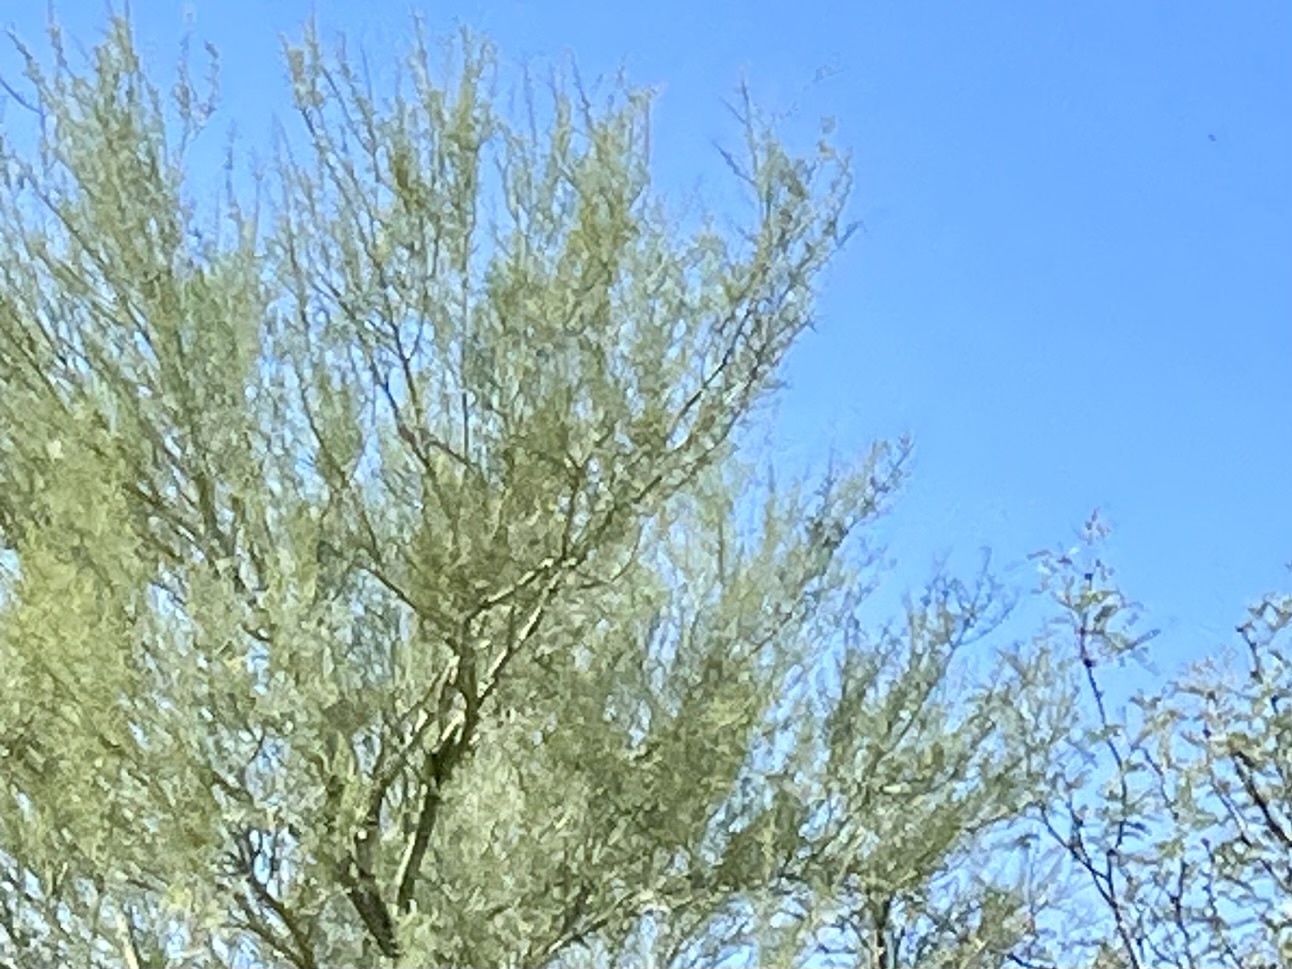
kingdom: Plantae
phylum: Tracheophyta
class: Magnoliopsida
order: Fabales
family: Fabaceae
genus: Parkinsonia
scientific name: Parkinsonia microphylla
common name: Yellow paloverde
